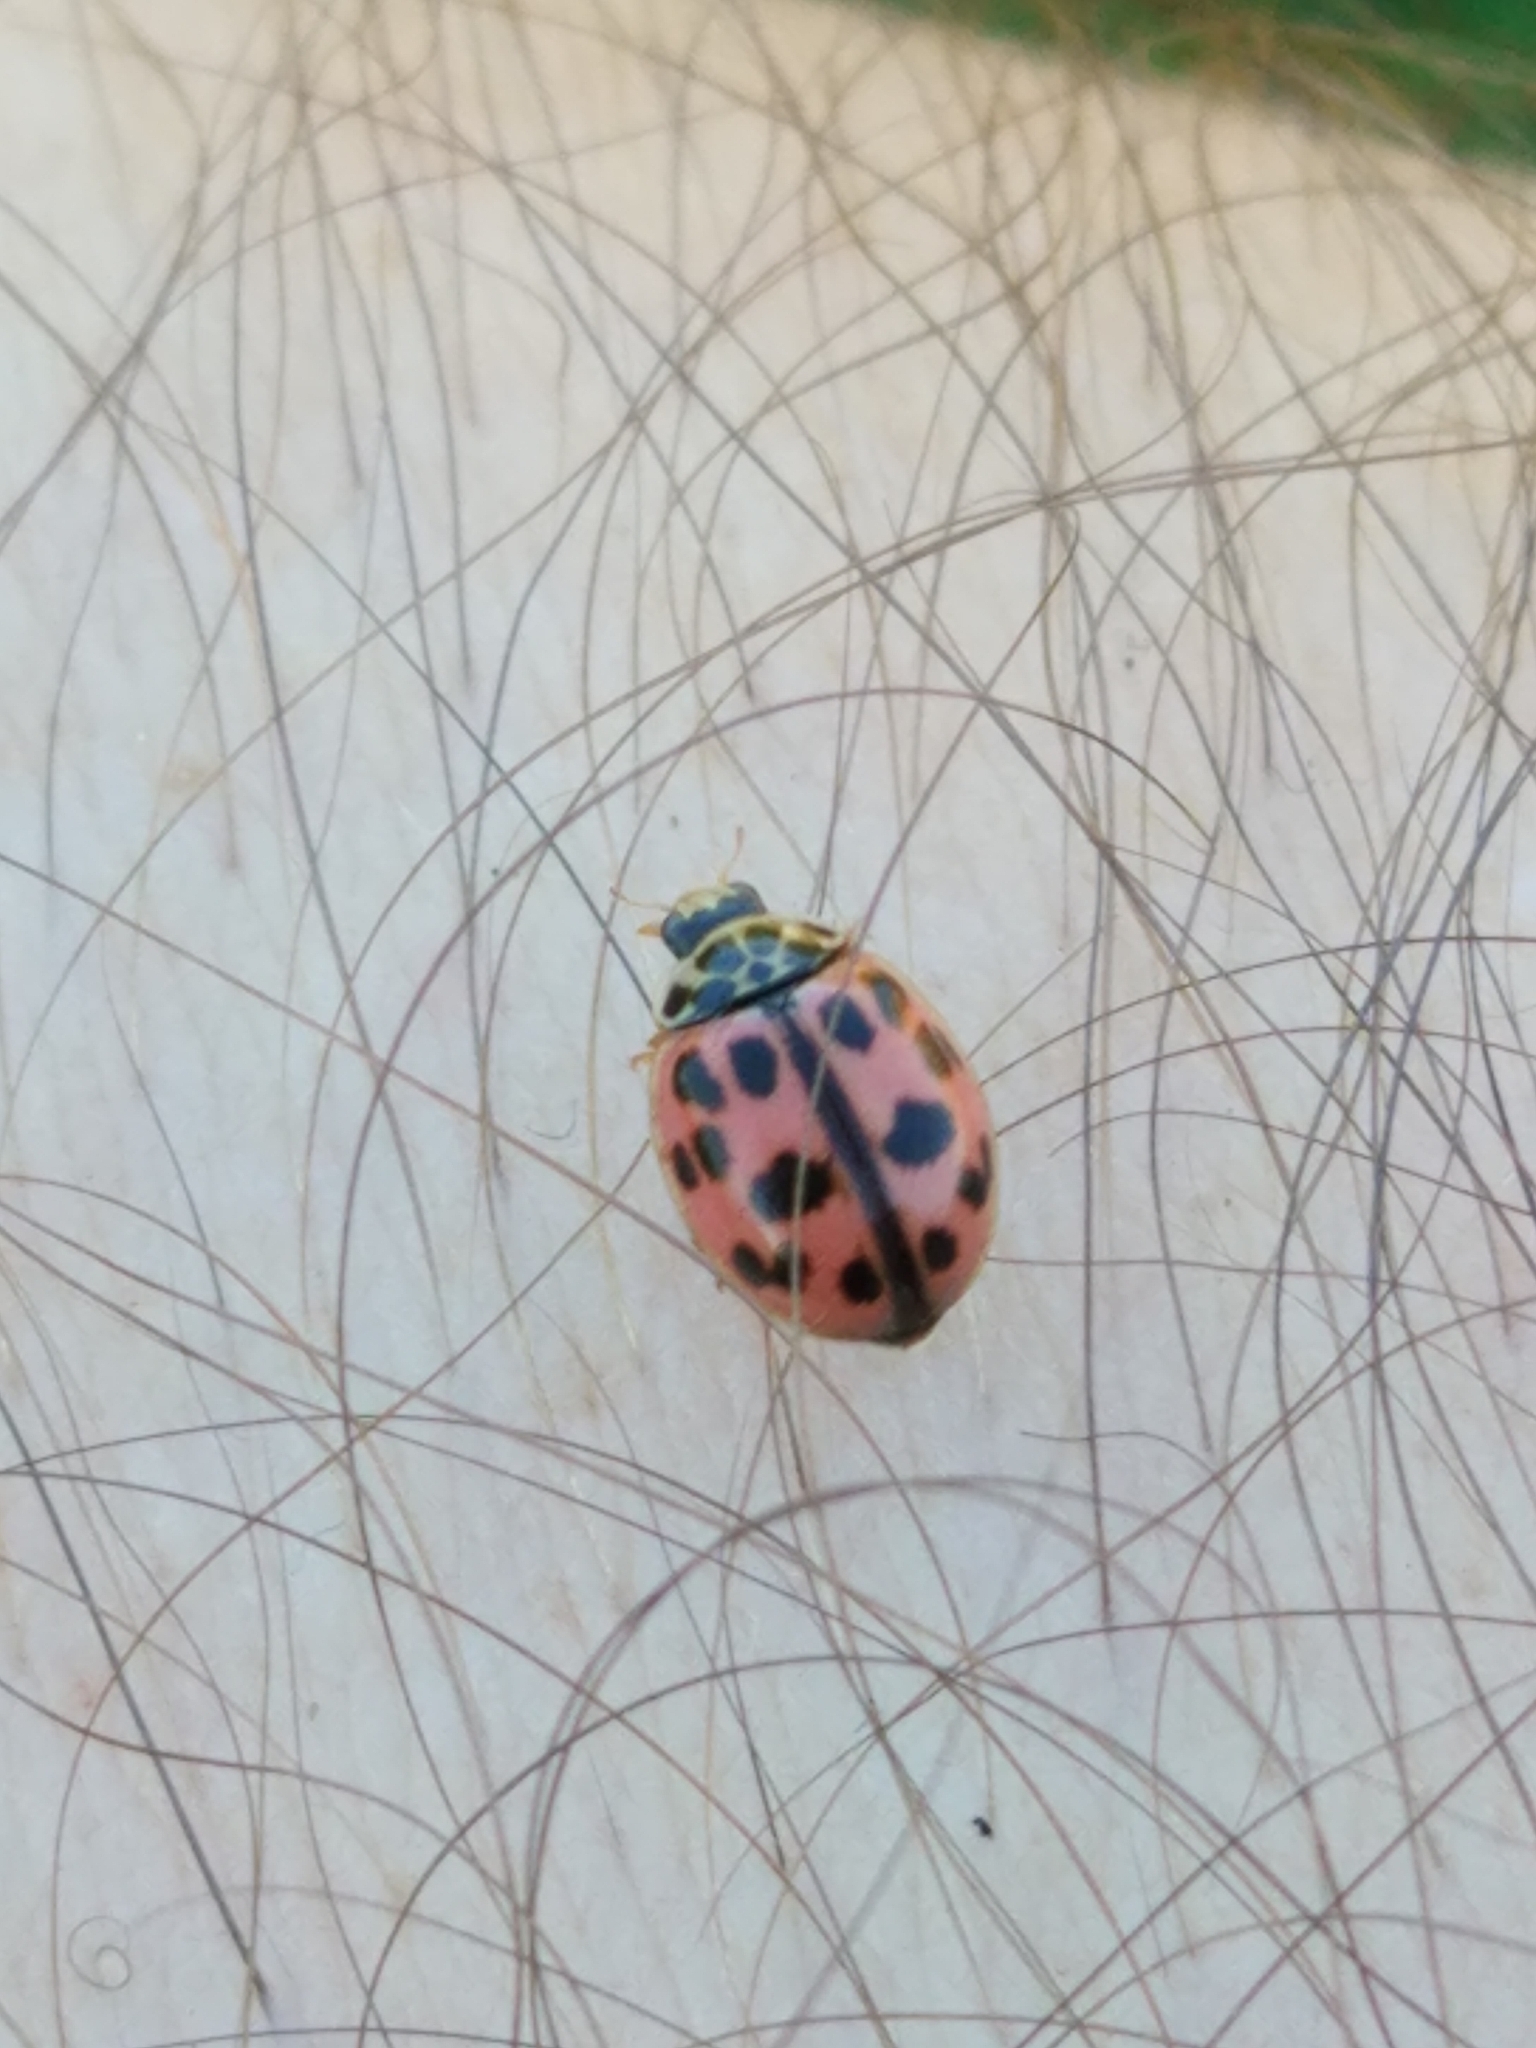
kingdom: Animalia
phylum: Arthropoda
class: Insecta
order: Coleoptera
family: Coccinellidae
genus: Oenopia
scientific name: Oenopia conglobata
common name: Ladybird beetle
